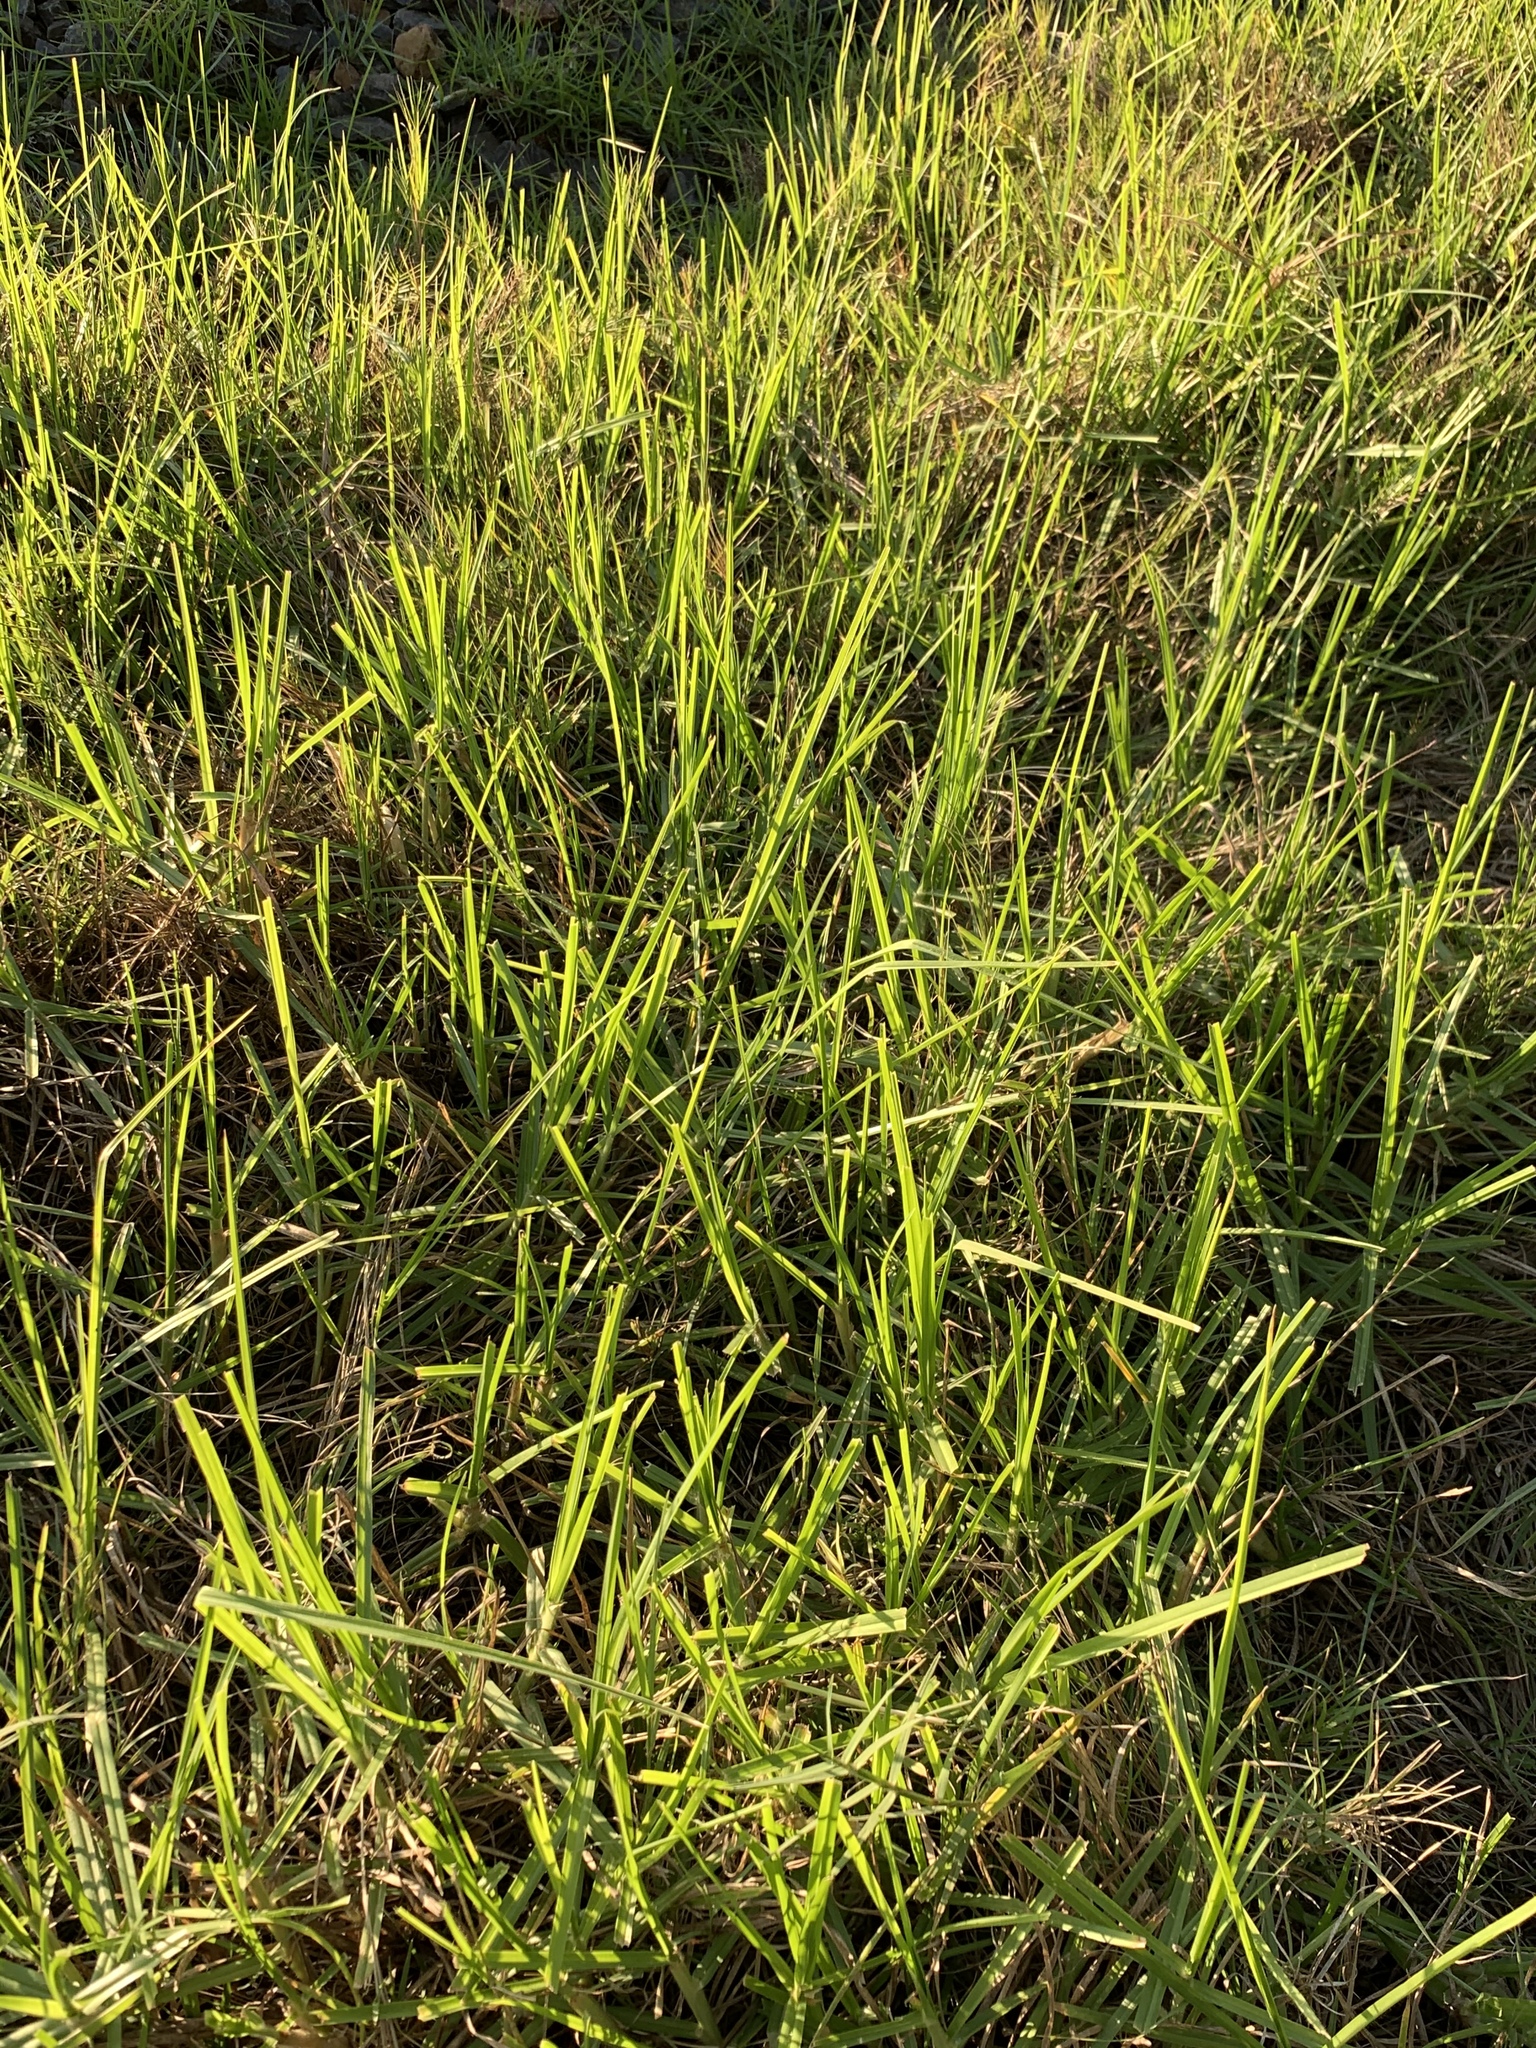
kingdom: Plantae
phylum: Tracheophyta
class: Liliopsida
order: Poales
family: Poaceae
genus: Cenchrus
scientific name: Cenchrus clandestinus
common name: Kikuyugrass
